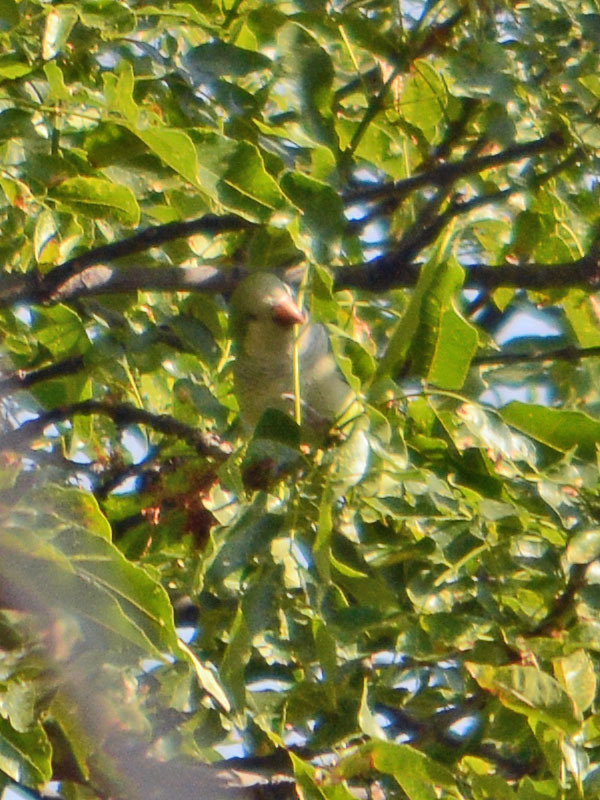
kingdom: Animalia
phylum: Chordata
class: Aves
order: Psittaciformes
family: Psittacidae
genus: Myiopsitta
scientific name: Myiopsitta monachus
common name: Monk parakeet
